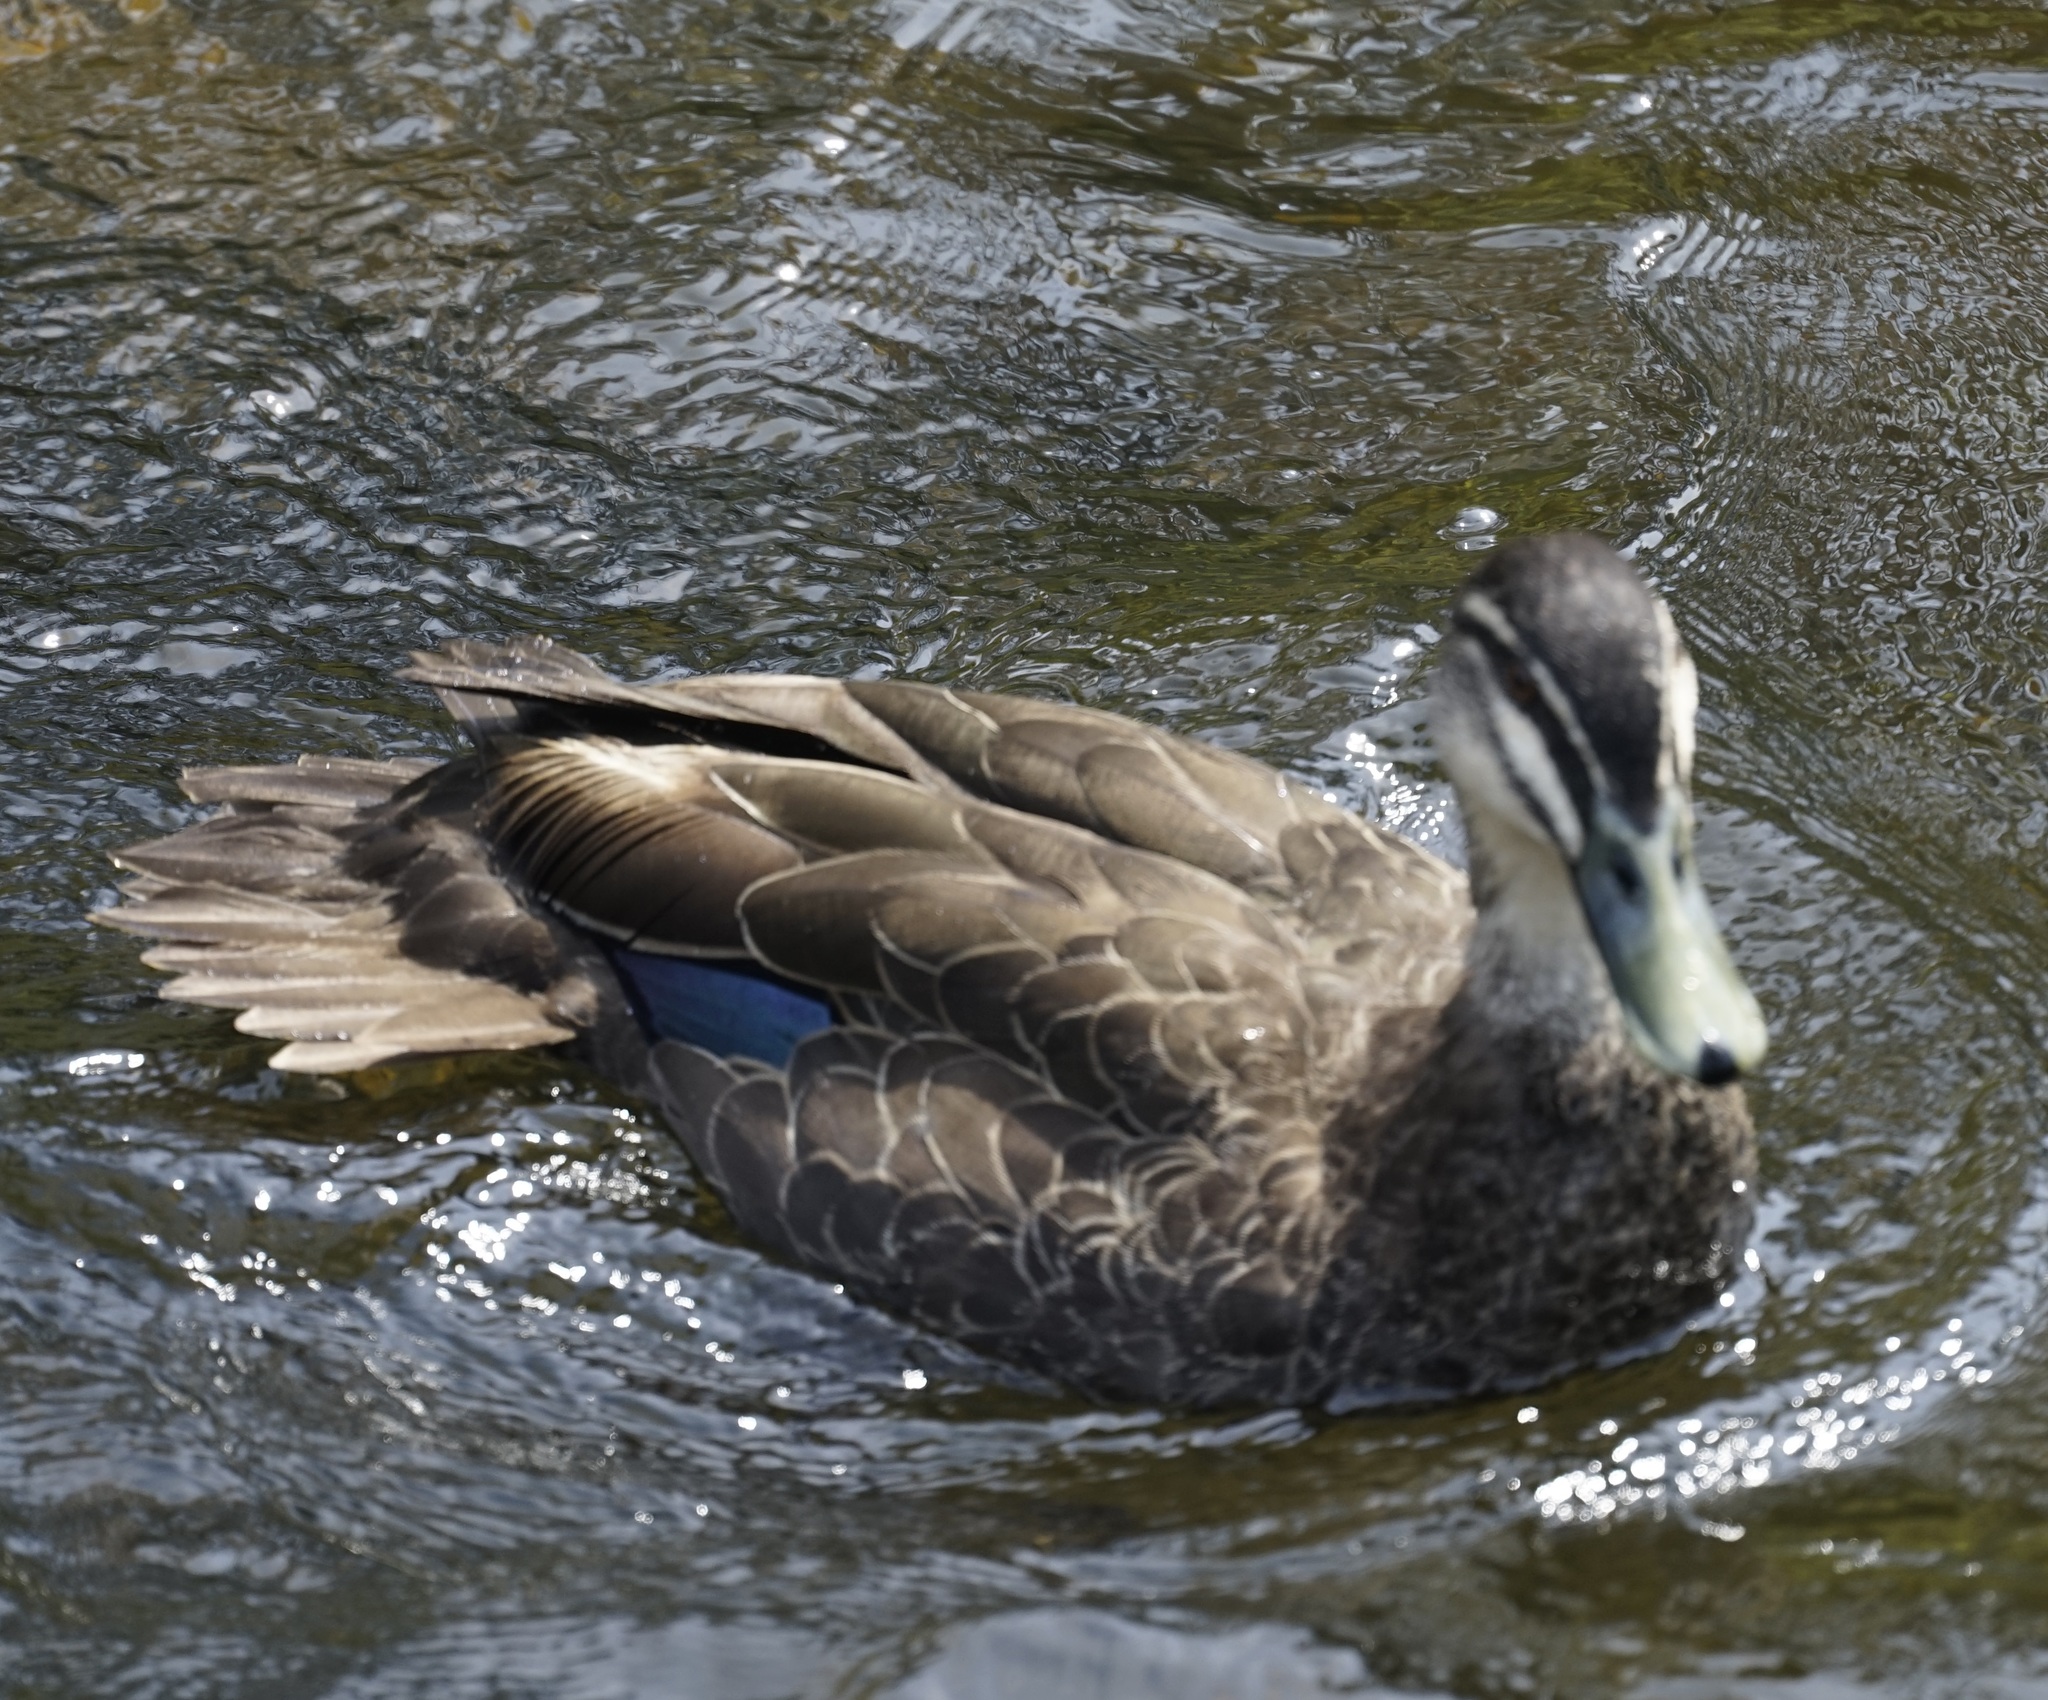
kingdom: Animalia
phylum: Chordata
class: Aves
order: Anseriformes
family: Anatidae
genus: Anas
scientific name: Anas superciliosa
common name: Pacific black duck
